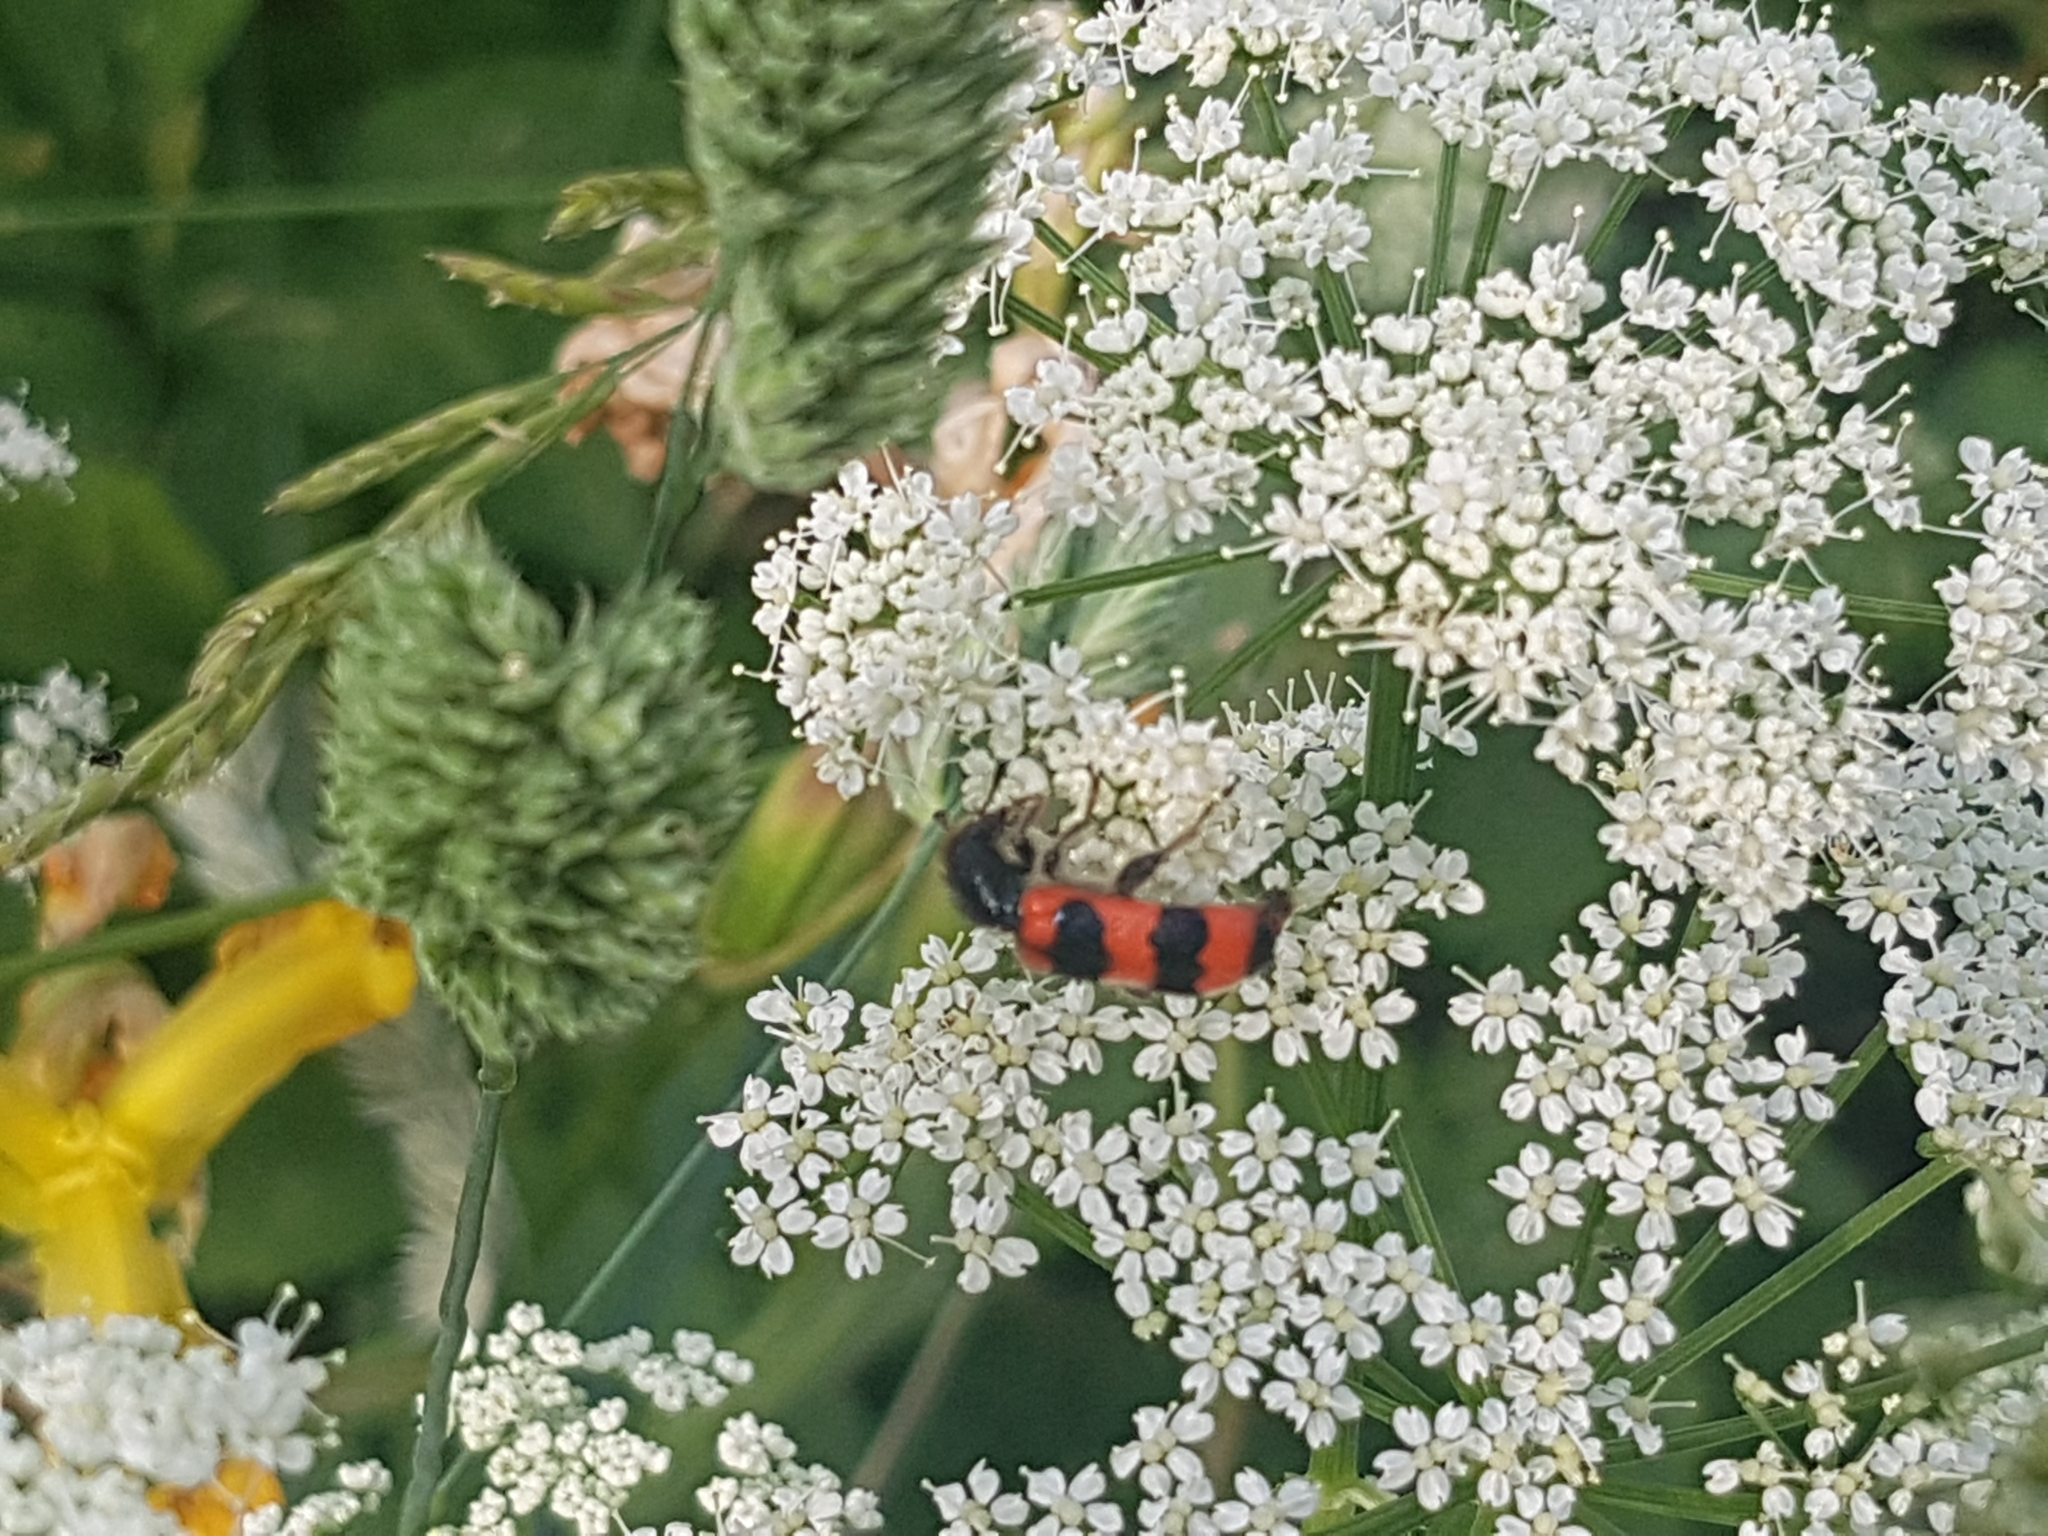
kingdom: Animalia
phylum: Arthropoda
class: Insecta
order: Coleoptera
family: Cleridae
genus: Trichodes
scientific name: Trichodes apiarius
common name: Bee-eating beetle
